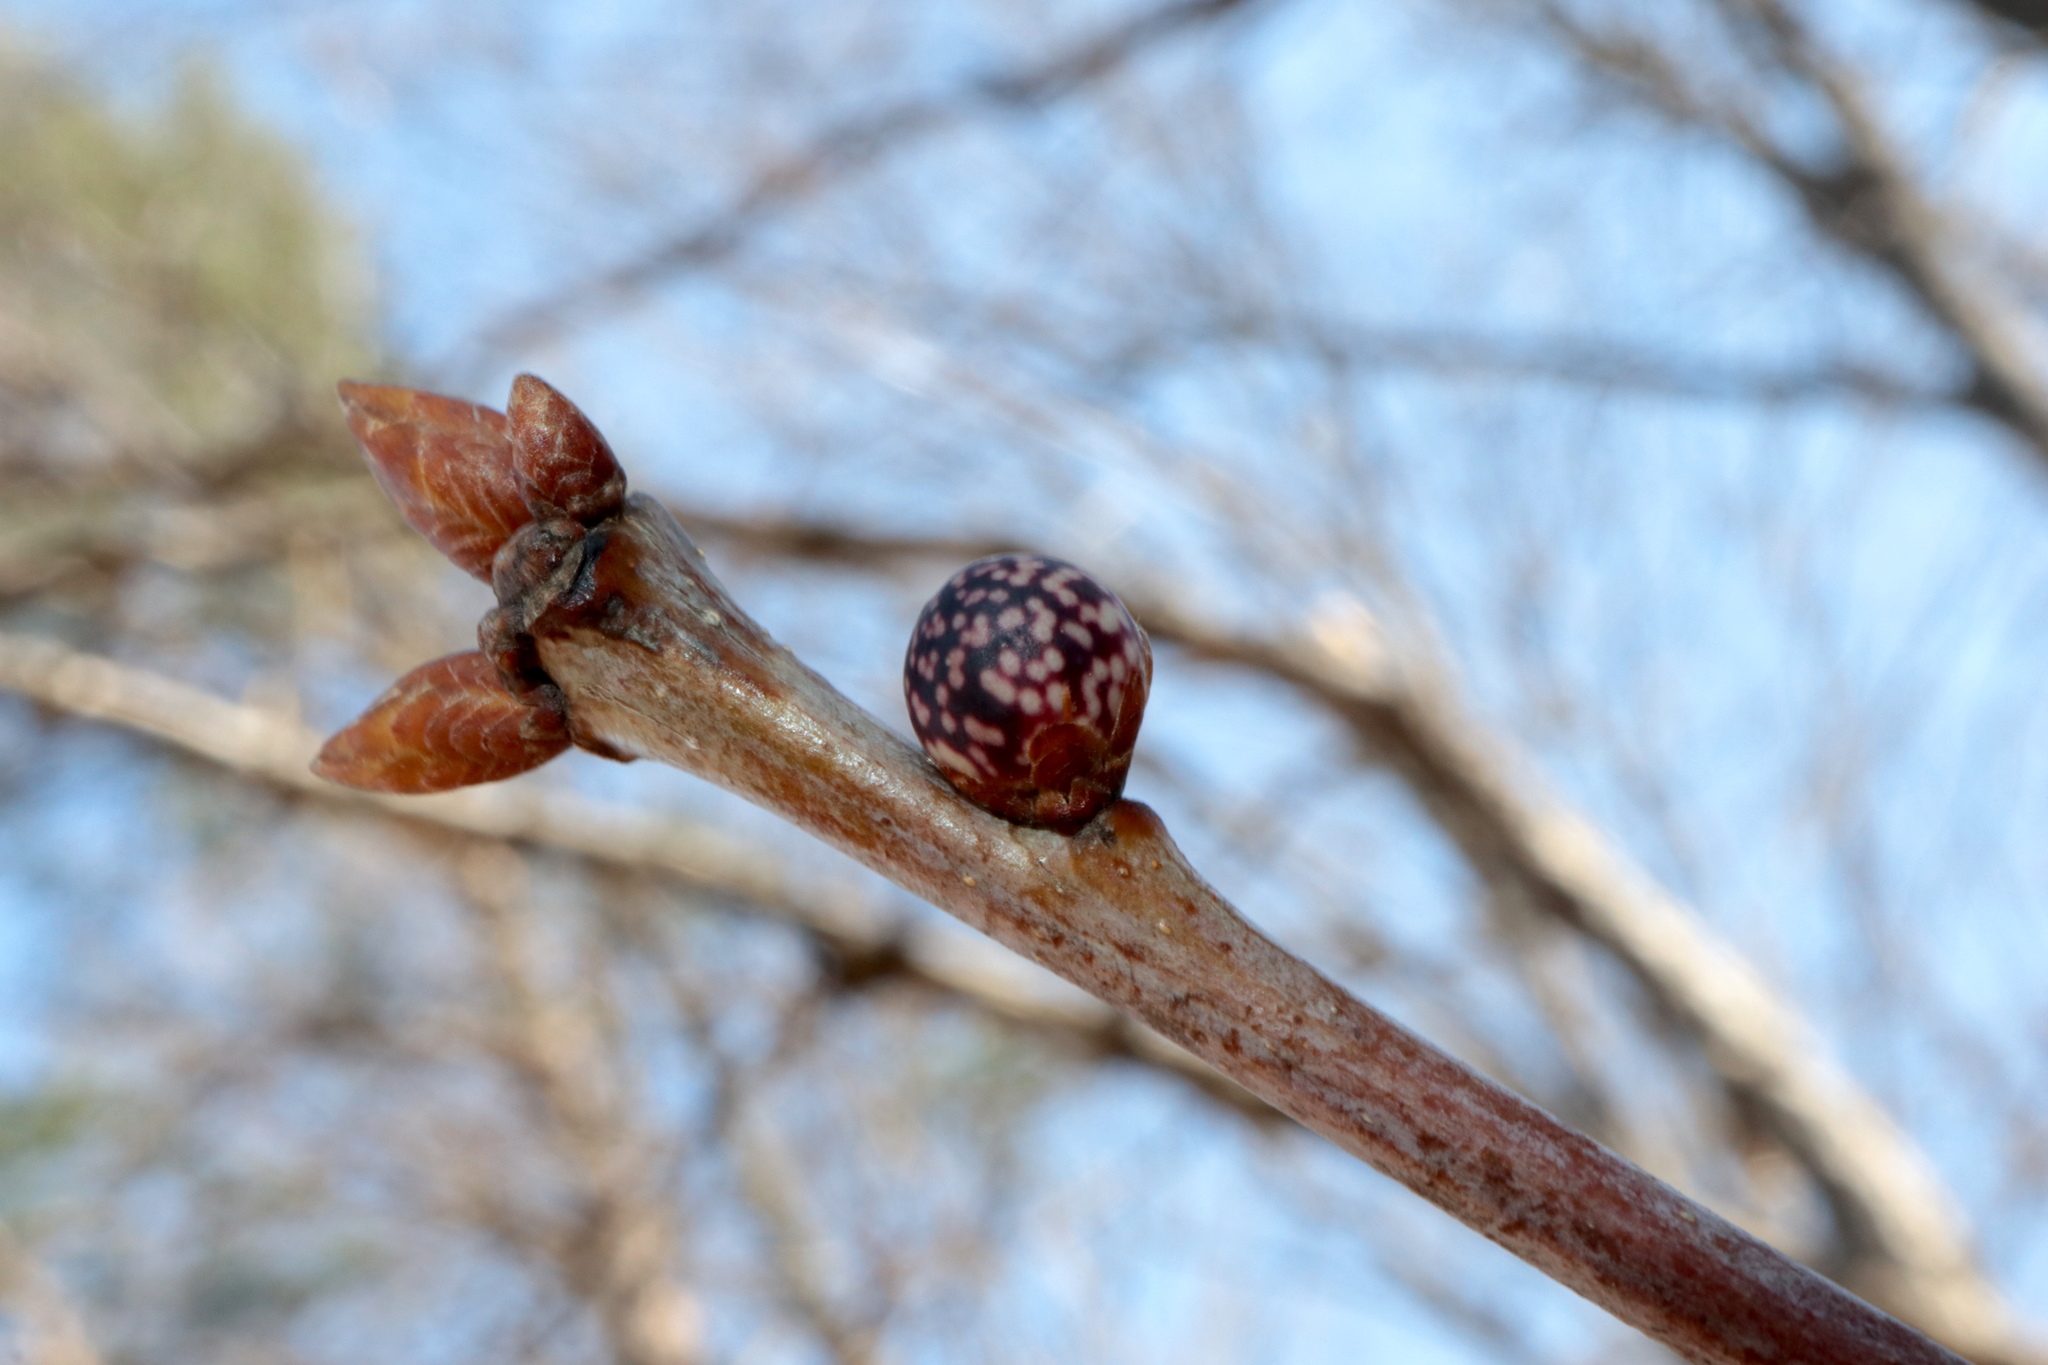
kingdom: Animalia
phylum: Arthropoda
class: Insecta
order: Hymenoptera
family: Cynipidae
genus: Andricus
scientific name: Andricus
